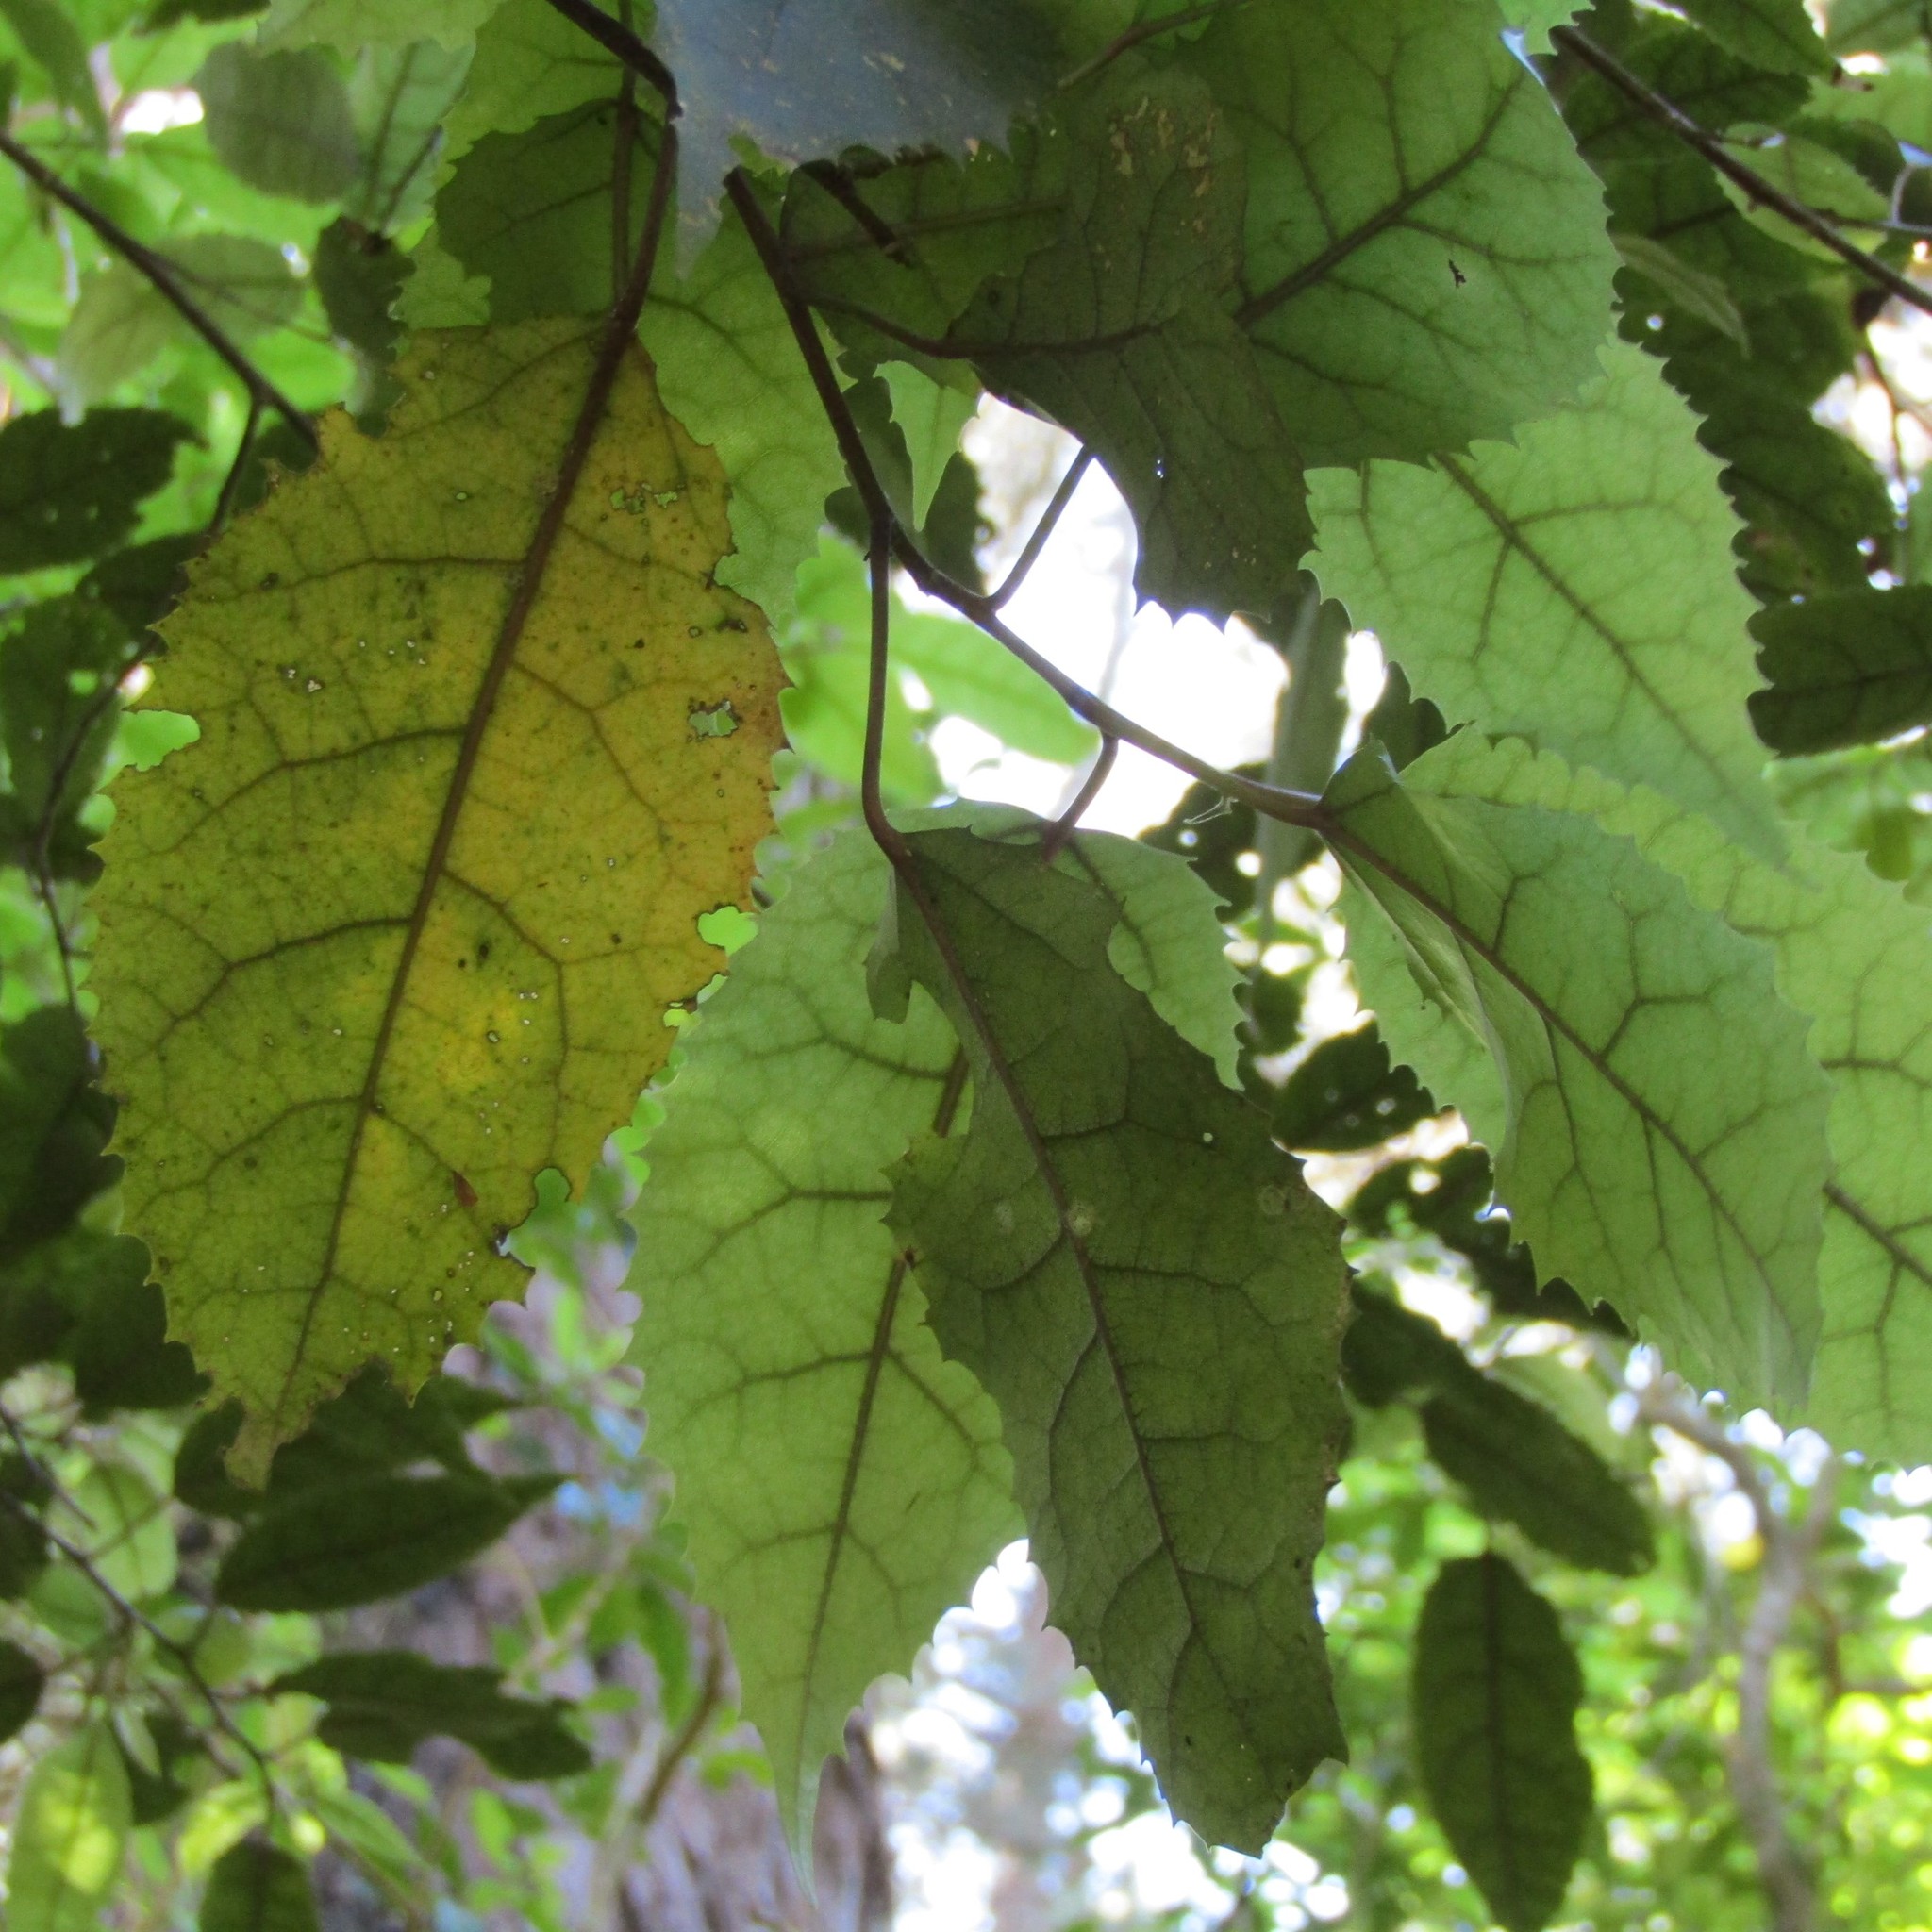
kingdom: Plantae
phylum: Tracheophyta
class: Magnoliopsida
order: Malvales
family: Malvaceae
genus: Hoheria
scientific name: Hoheria populnea
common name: Lacebark
